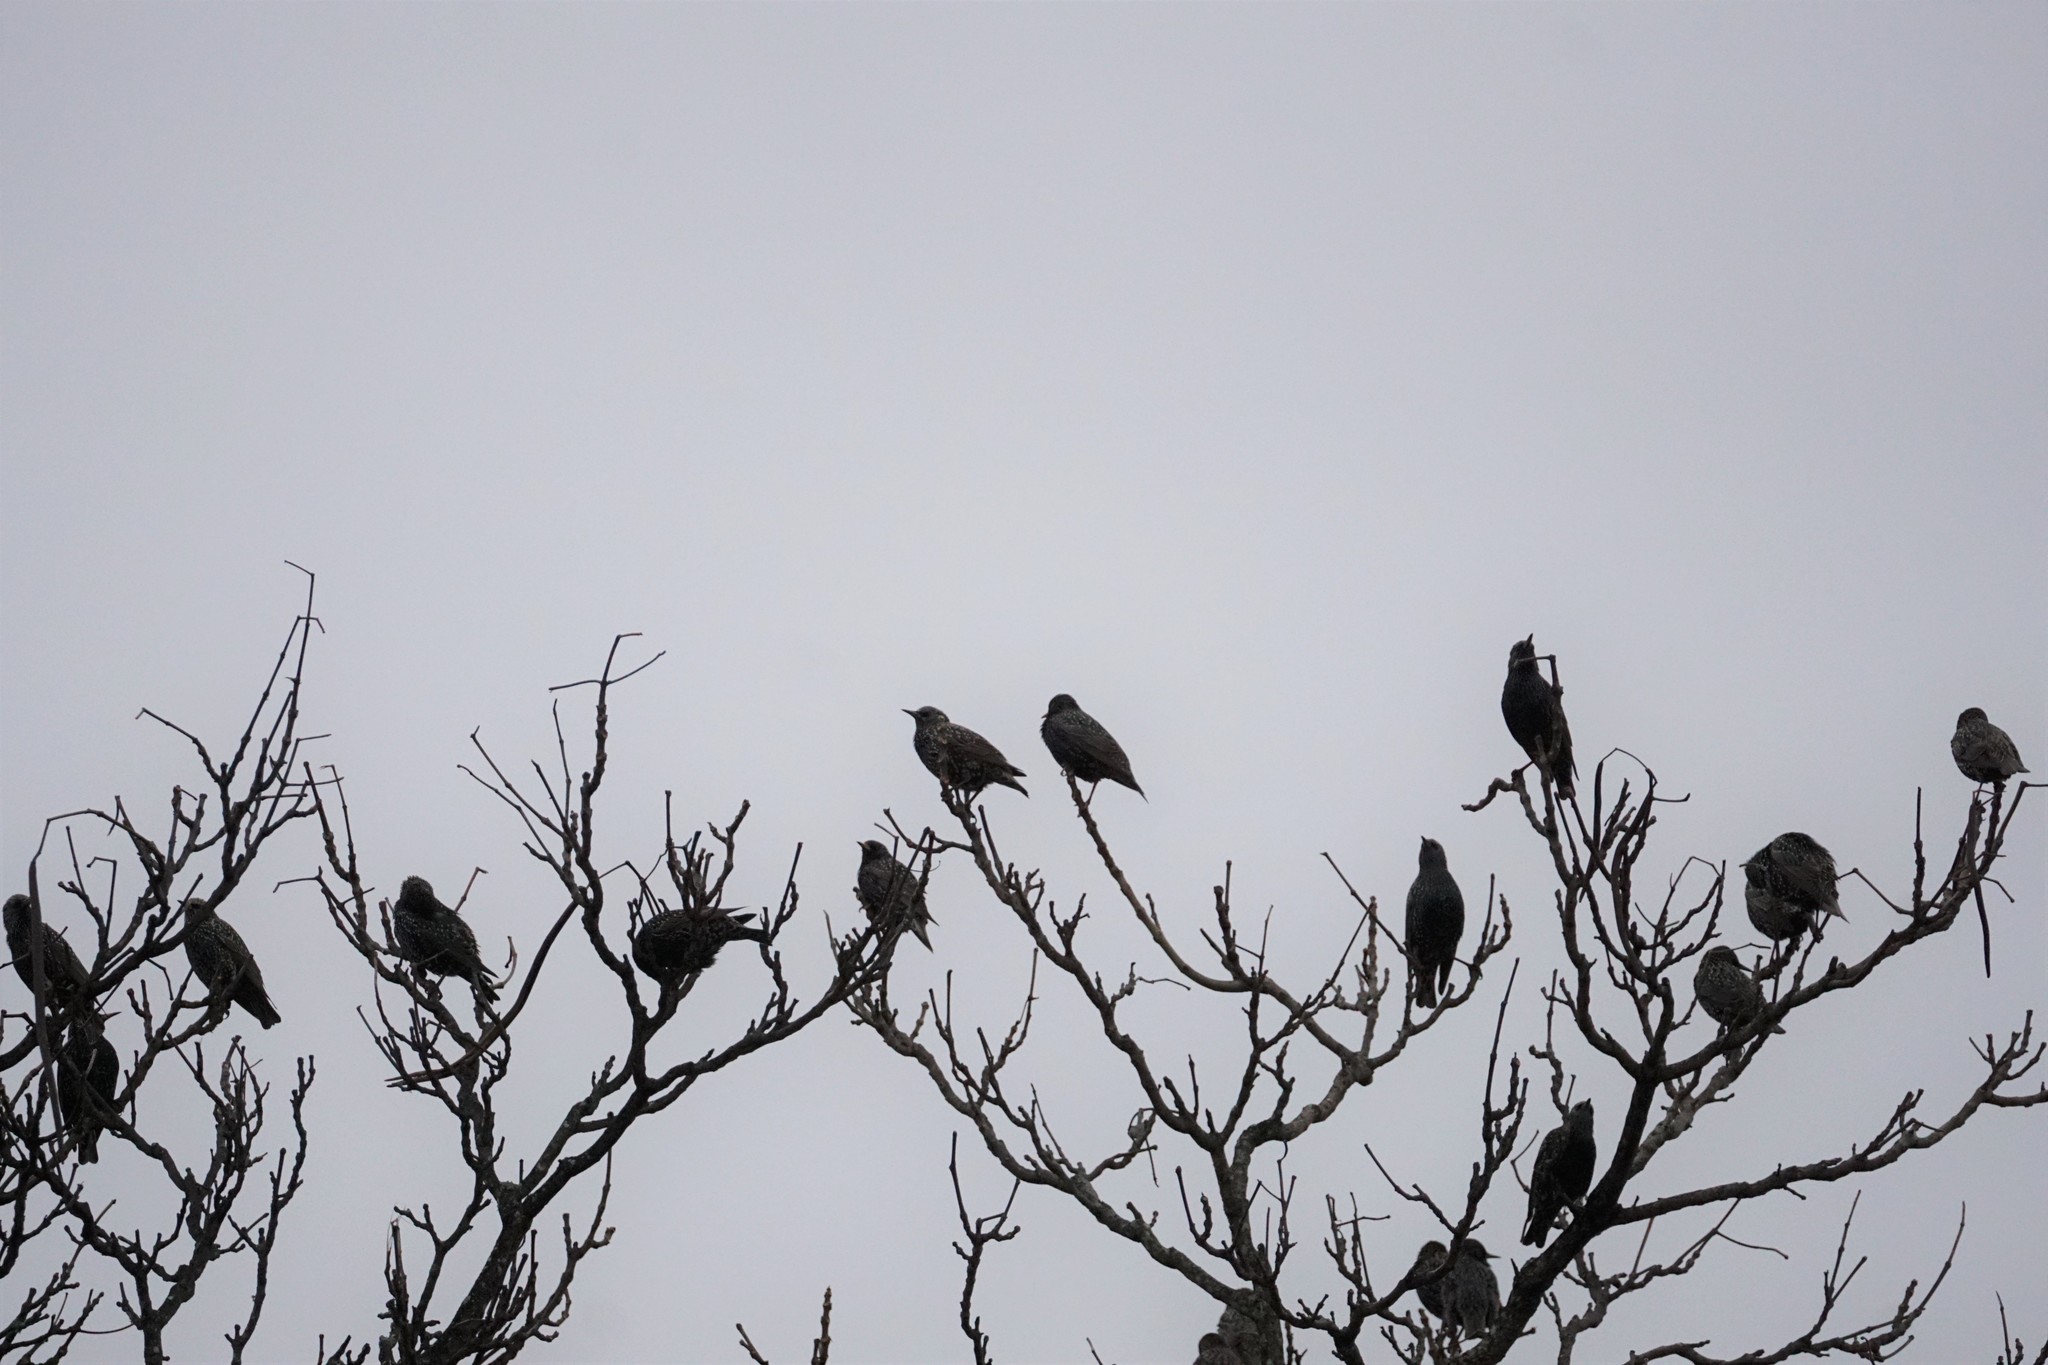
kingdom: Animalia
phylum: Chordata
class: Aves
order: Passeriformes
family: Sturnidae
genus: Sturnus
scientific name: Sturnus vulgaris
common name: Common starling
